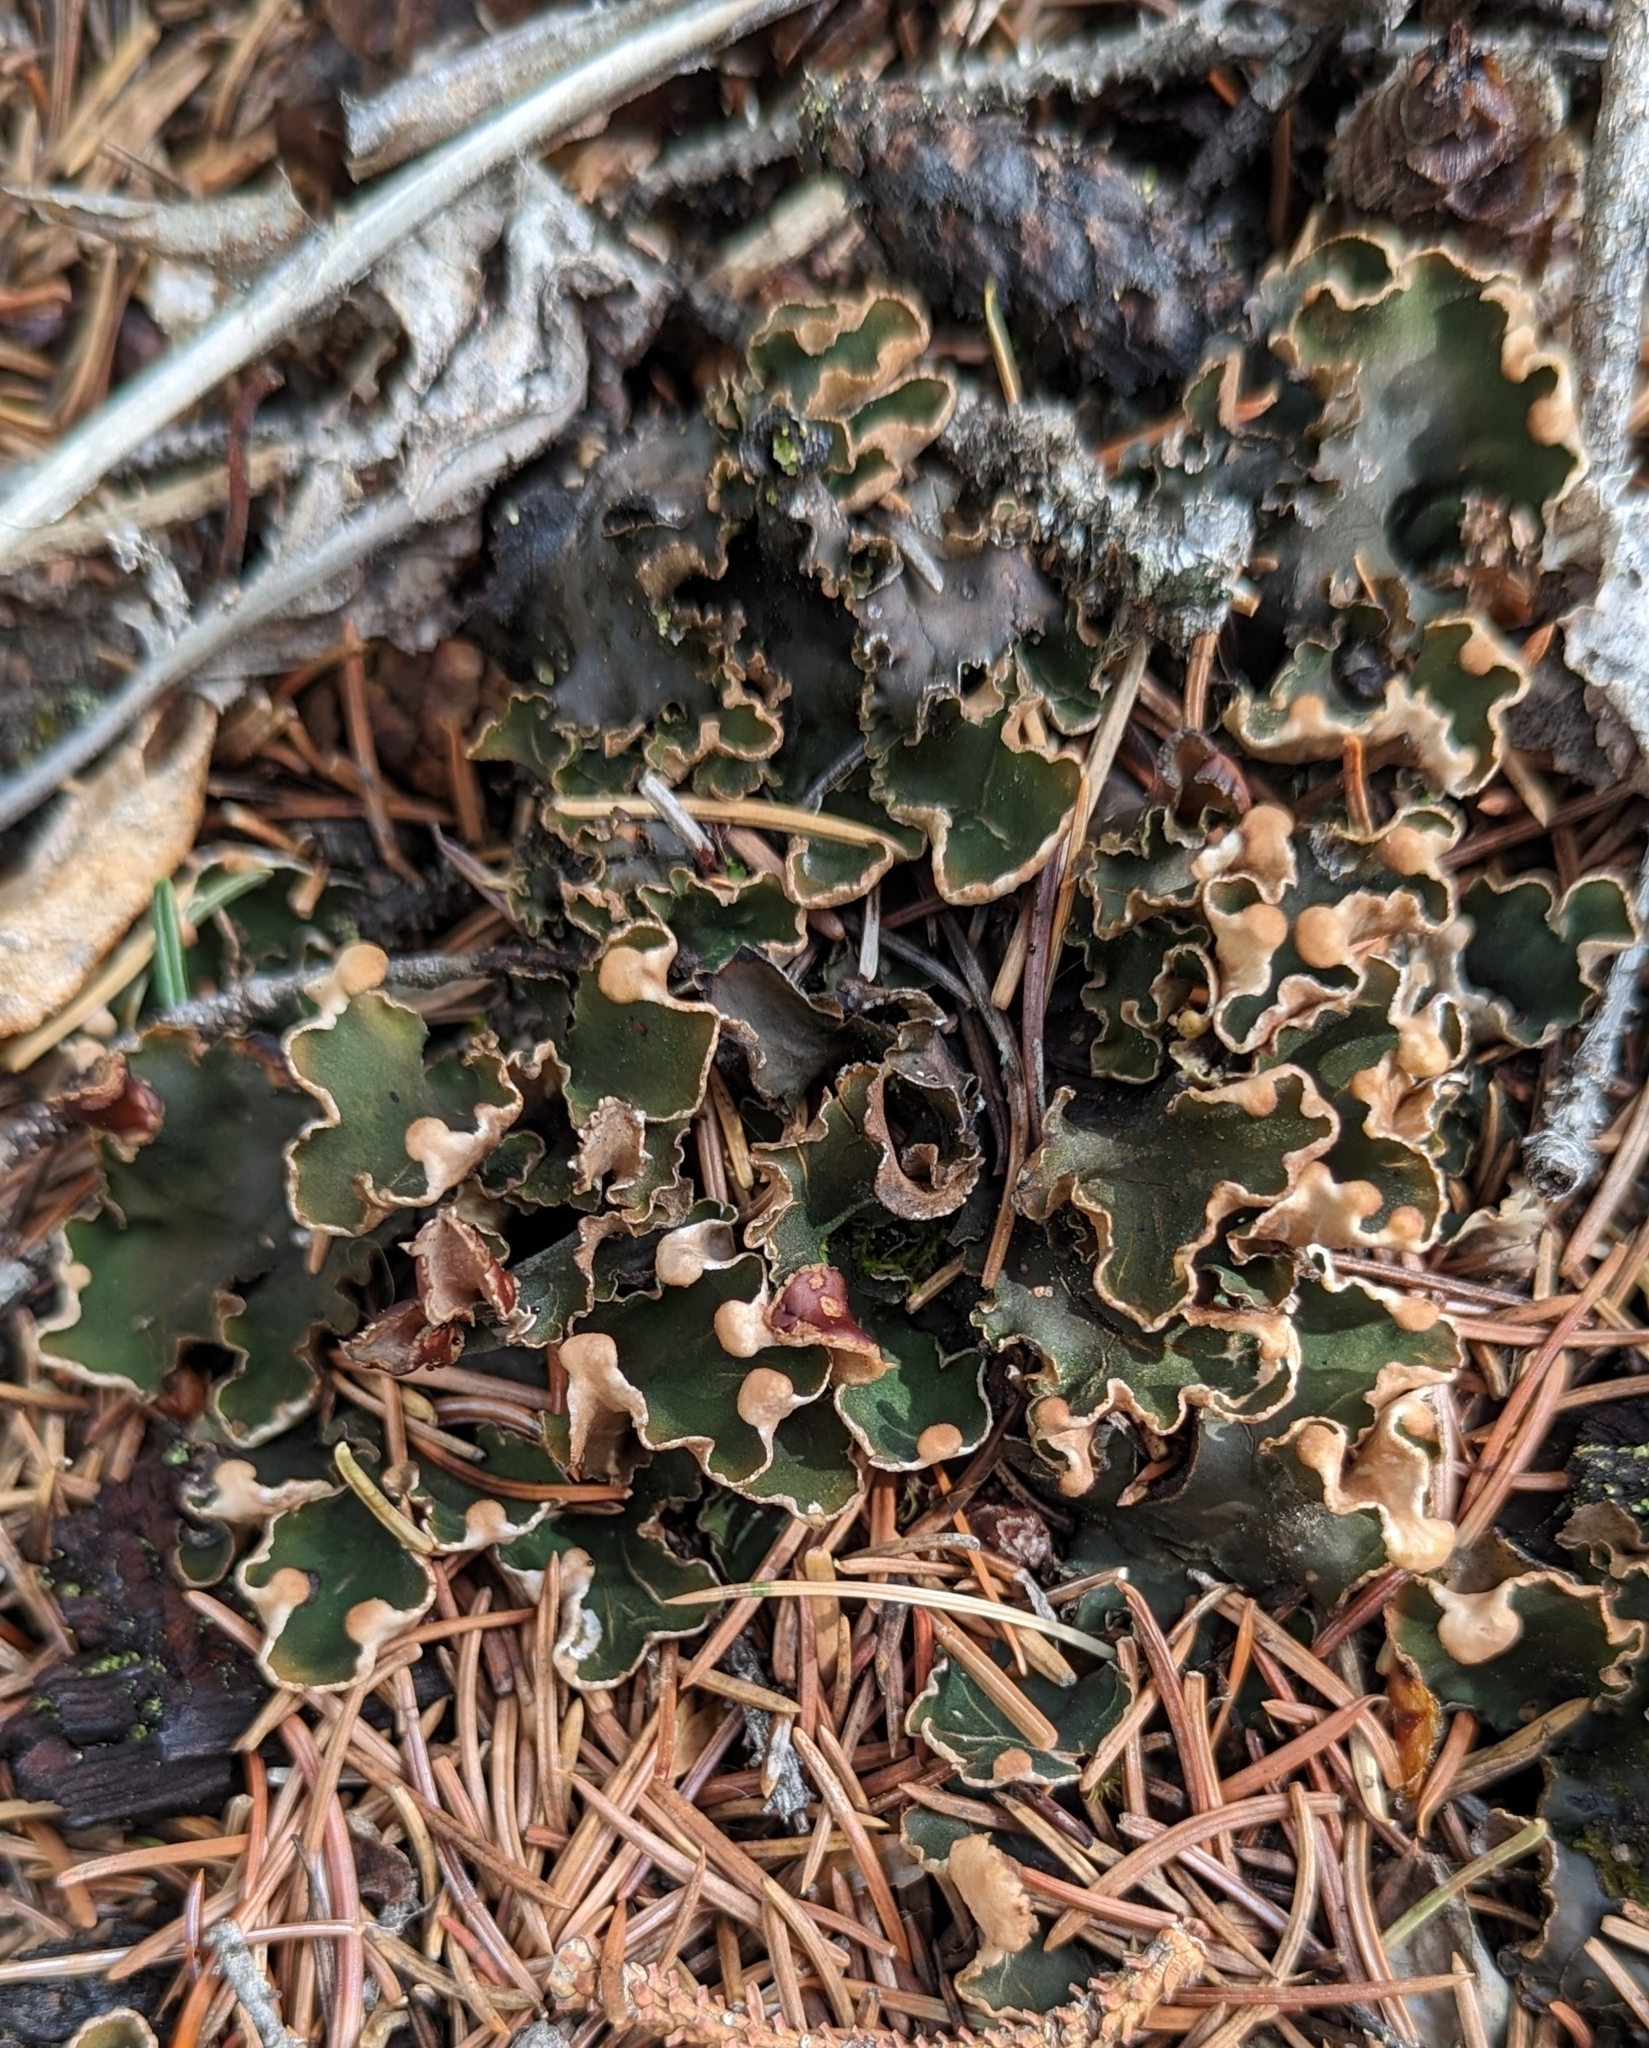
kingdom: Fungi
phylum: Ascomycota
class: Lecanoromycetes
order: Peltigerales
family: Peltigeraceae
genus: Peltigera
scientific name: Peltigera malacea
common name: Matt felt lichen
